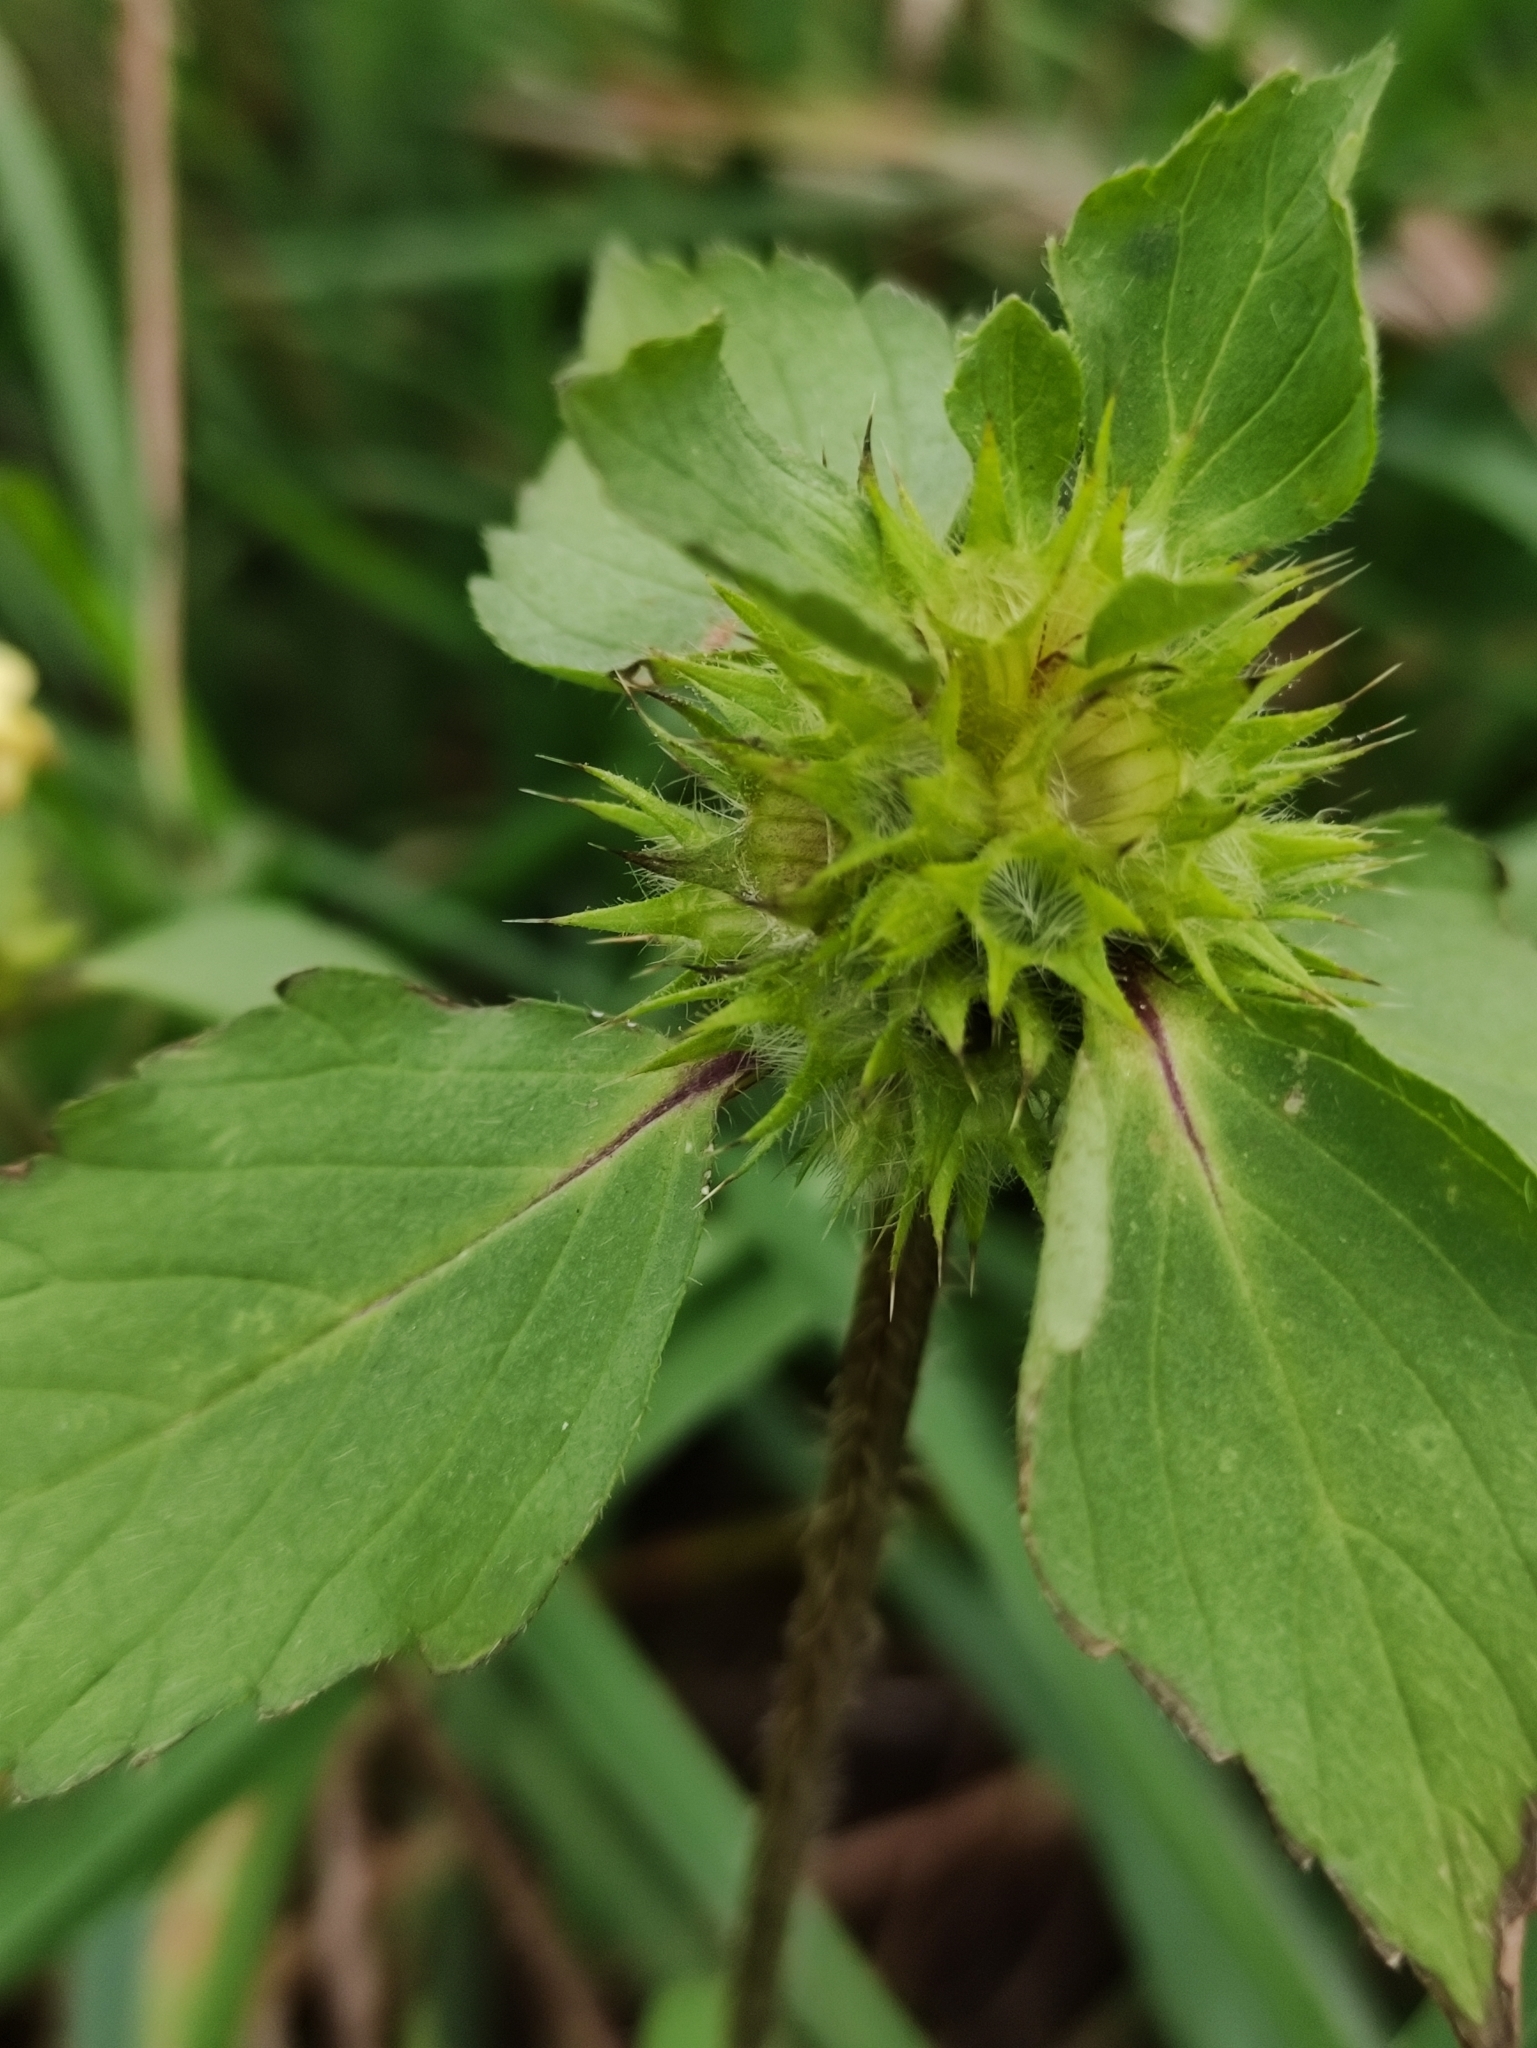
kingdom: Plantae
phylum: Tracheophyta
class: Magnoliopsida
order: Lamiales
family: Lamiaceae
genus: Galeopsis
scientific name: Galeopsis speciosa
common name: Large-flowered hemp-nettle
